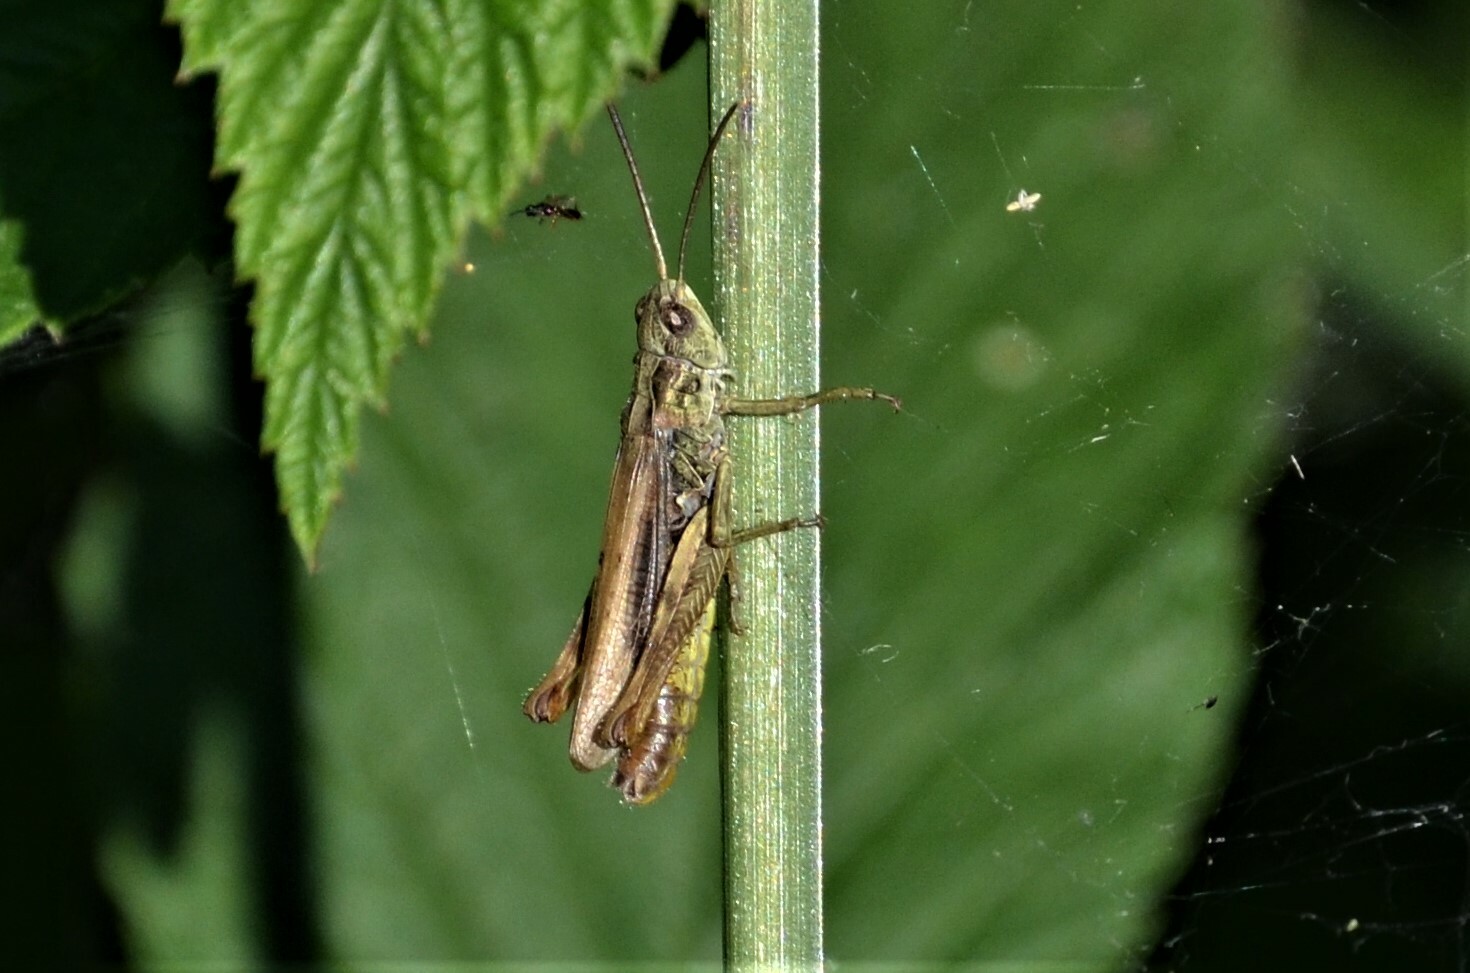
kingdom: Animalia
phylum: Arthropoda
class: Insecta
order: Orthoptera
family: Acrididae
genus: Chorthippus
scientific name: Chorthippus apricarius
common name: Upland field grasshopper
